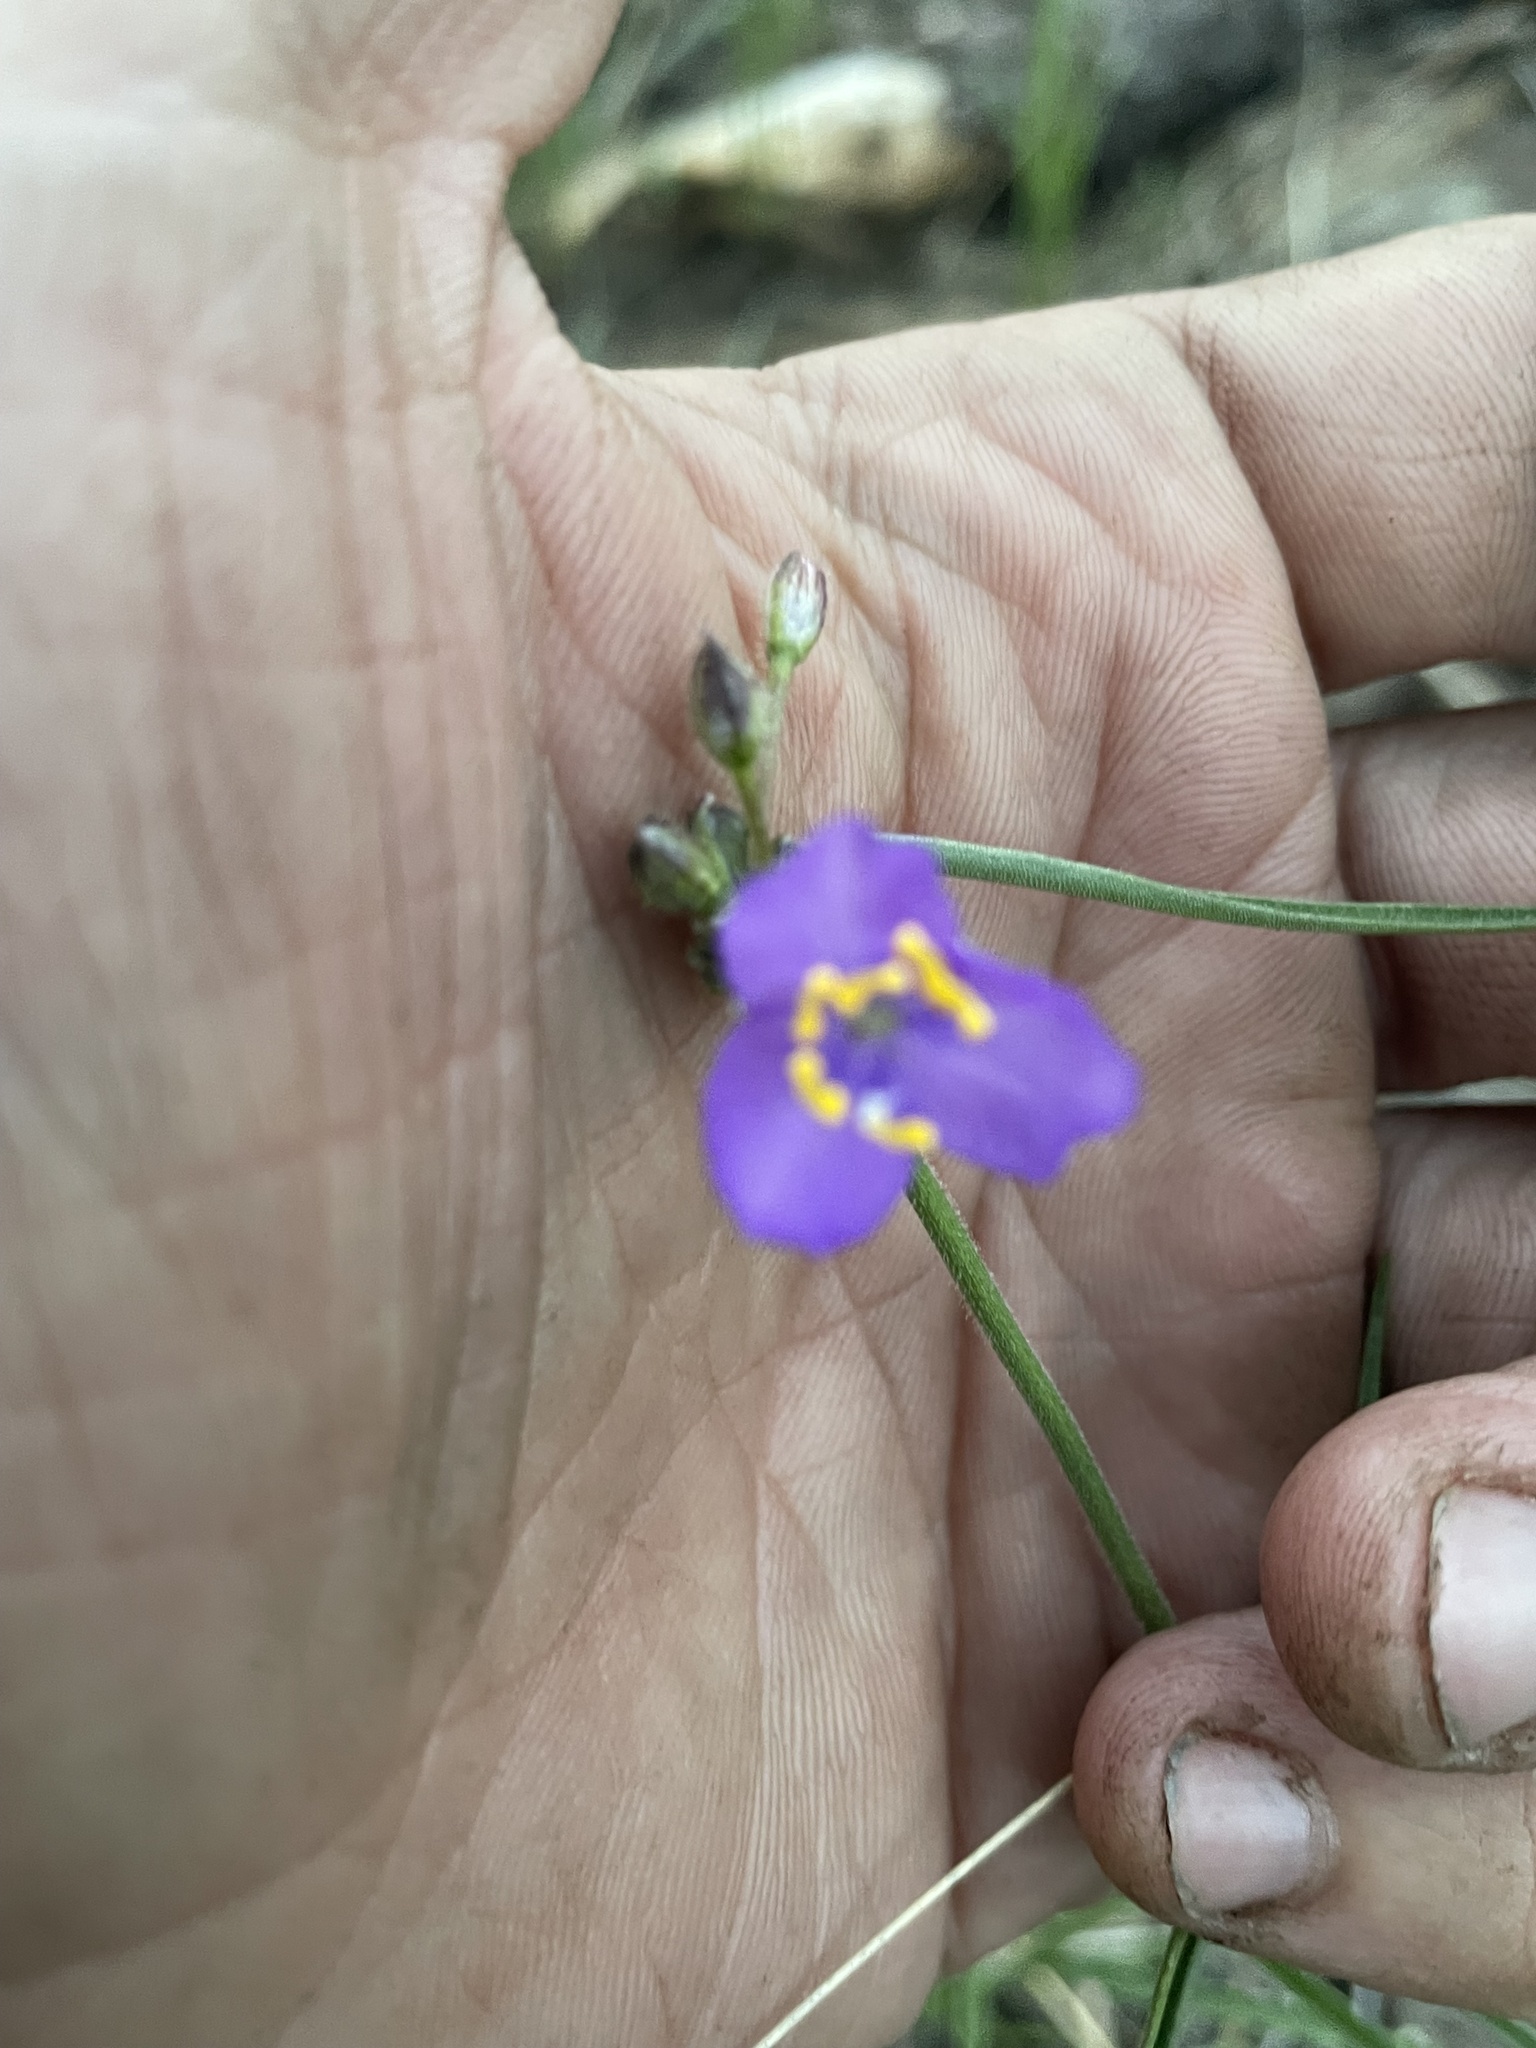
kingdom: Plantae
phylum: Tracheophyta
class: Liliopsida
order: Commelinales
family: Commelinaceae
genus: Tradescantia
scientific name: Tradescantia pinetorum
